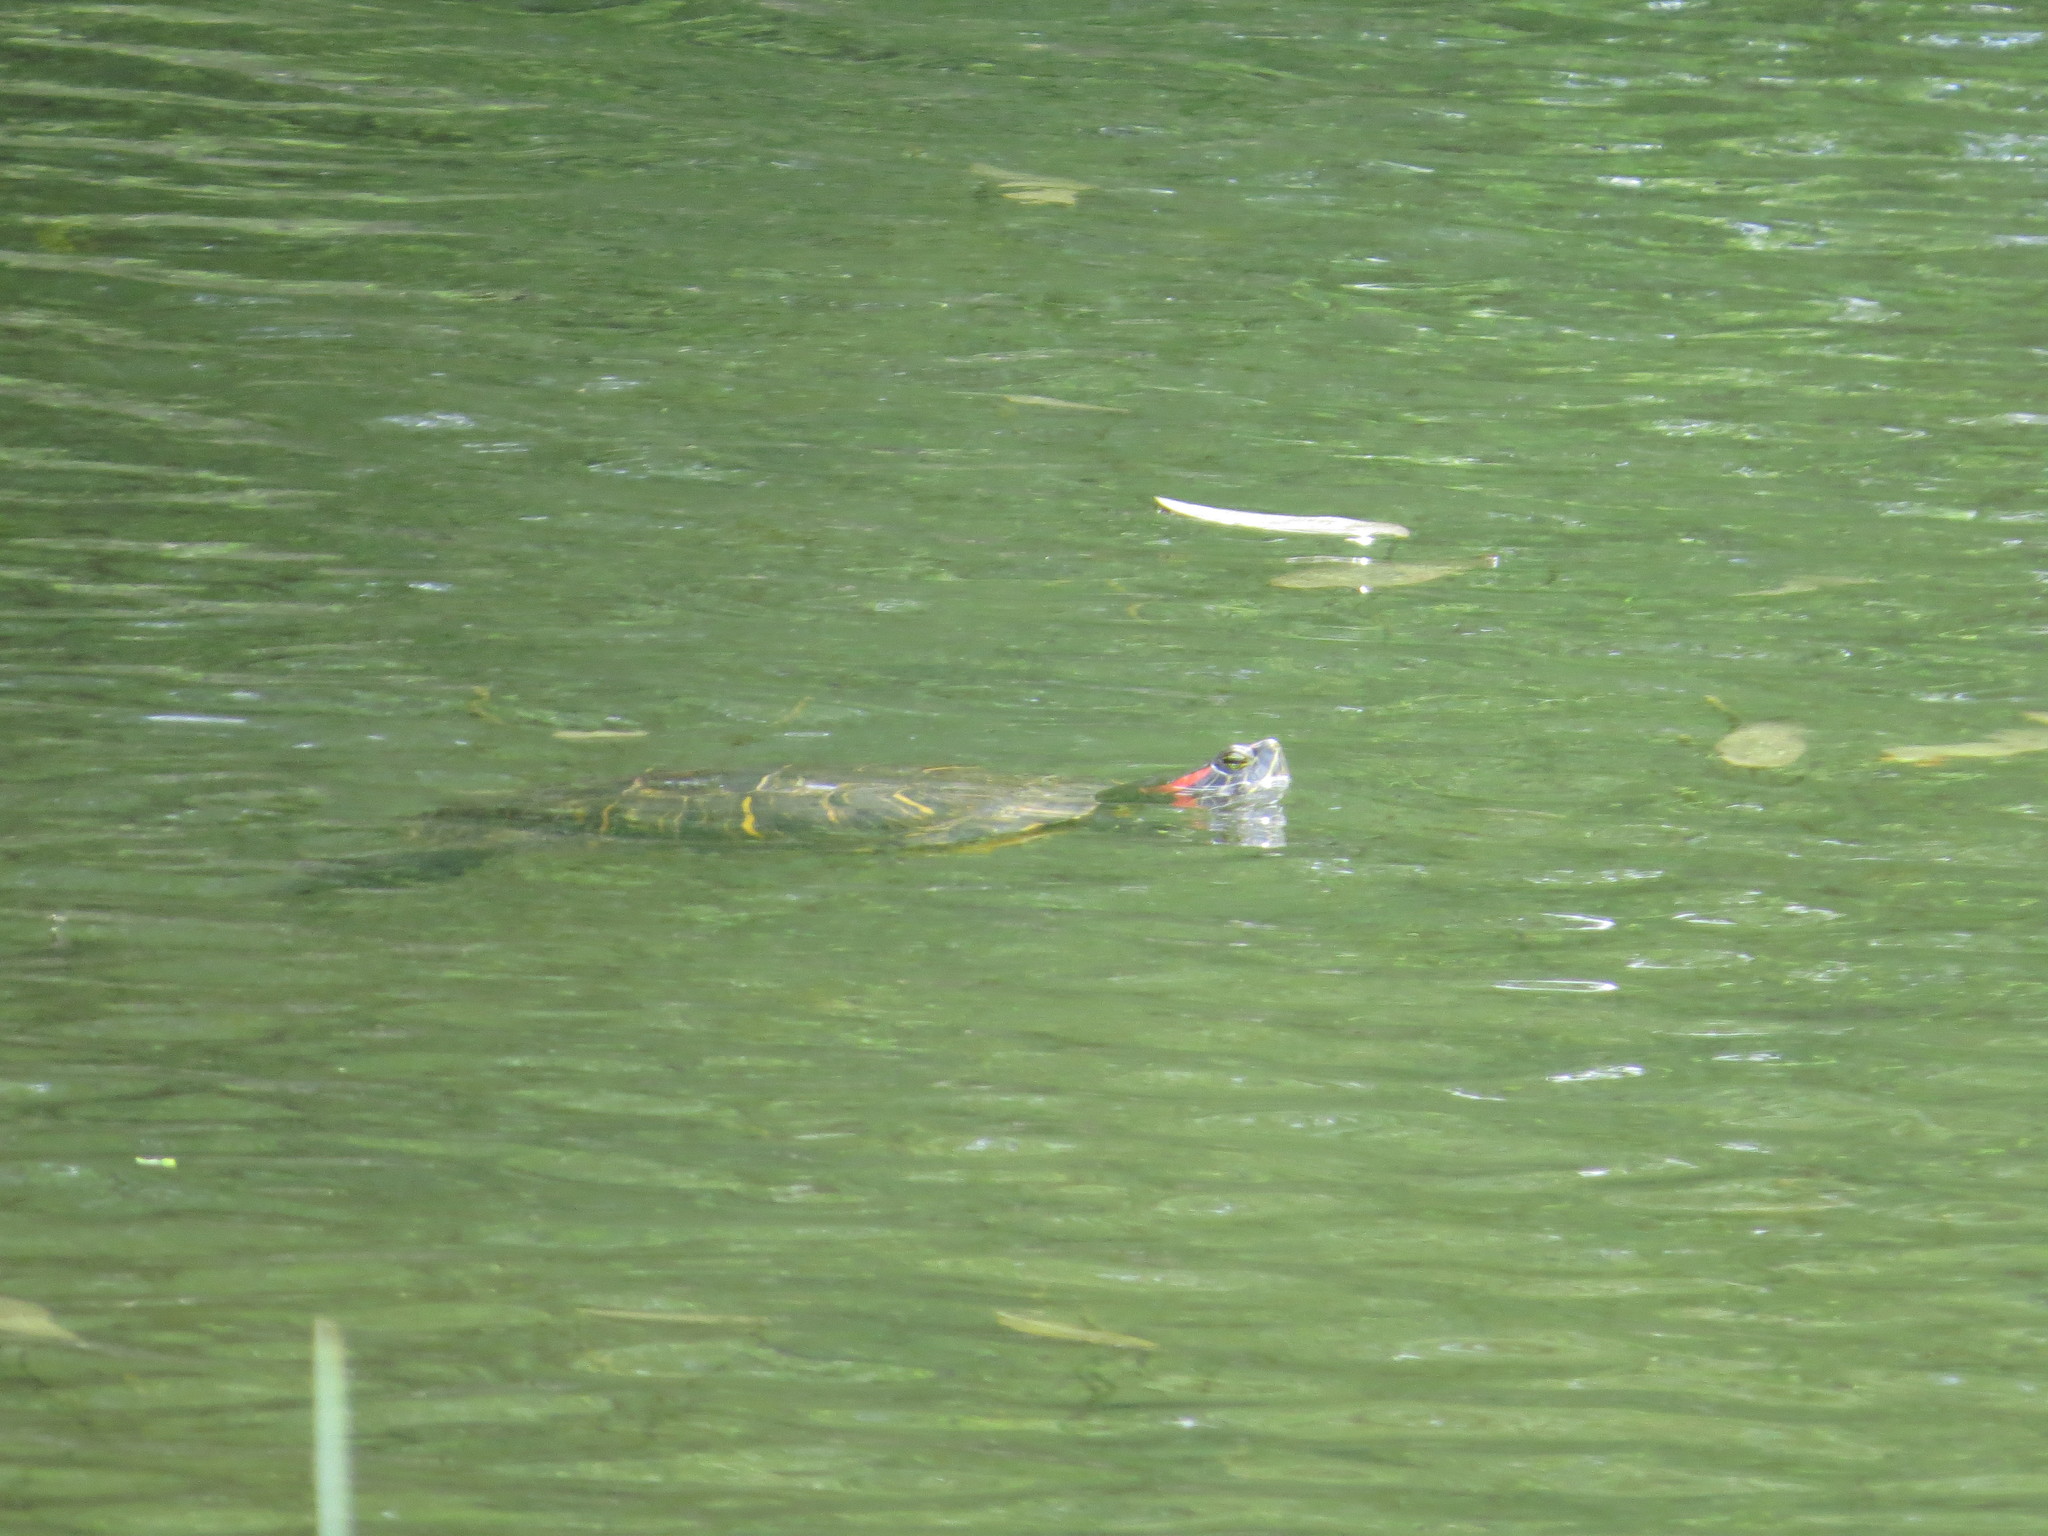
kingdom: Animalia
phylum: Chordata
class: Testudines
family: Emydidae
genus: Trachemys
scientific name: Trachemys scripta
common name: Slider
